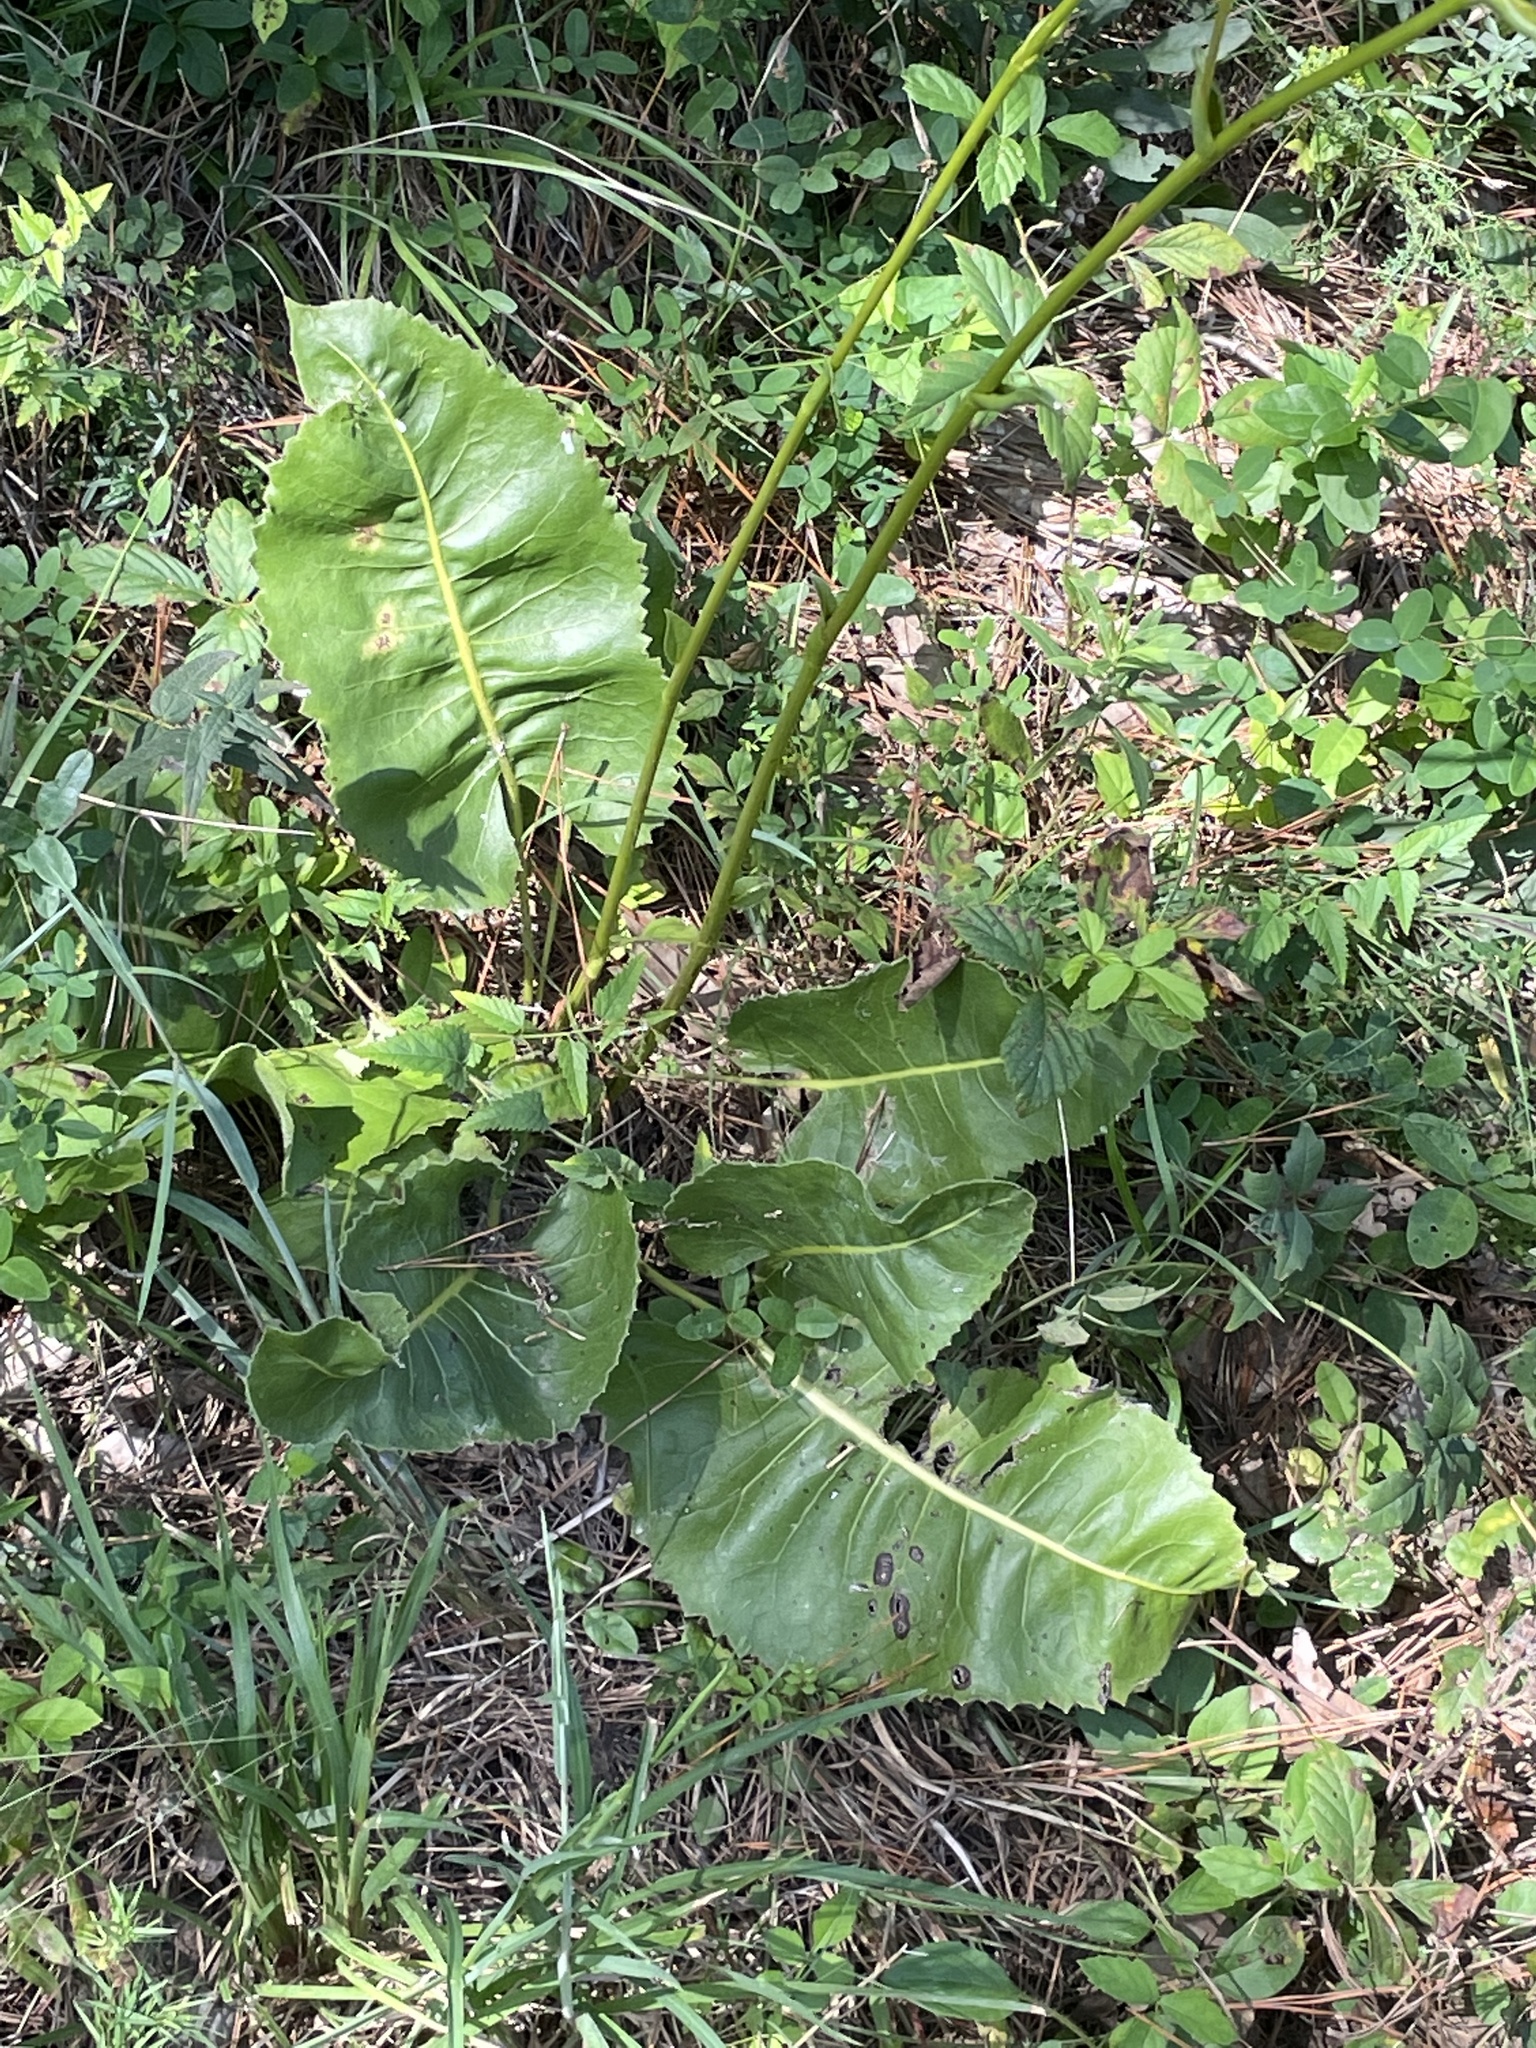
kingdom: Plantae
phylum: Tracheophyta
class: Magnoliopsida
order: Asterales
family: Asteraceae
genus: Silphium
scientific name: Silphium terebinthinaceum
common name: Basal-leaf rosinweed
